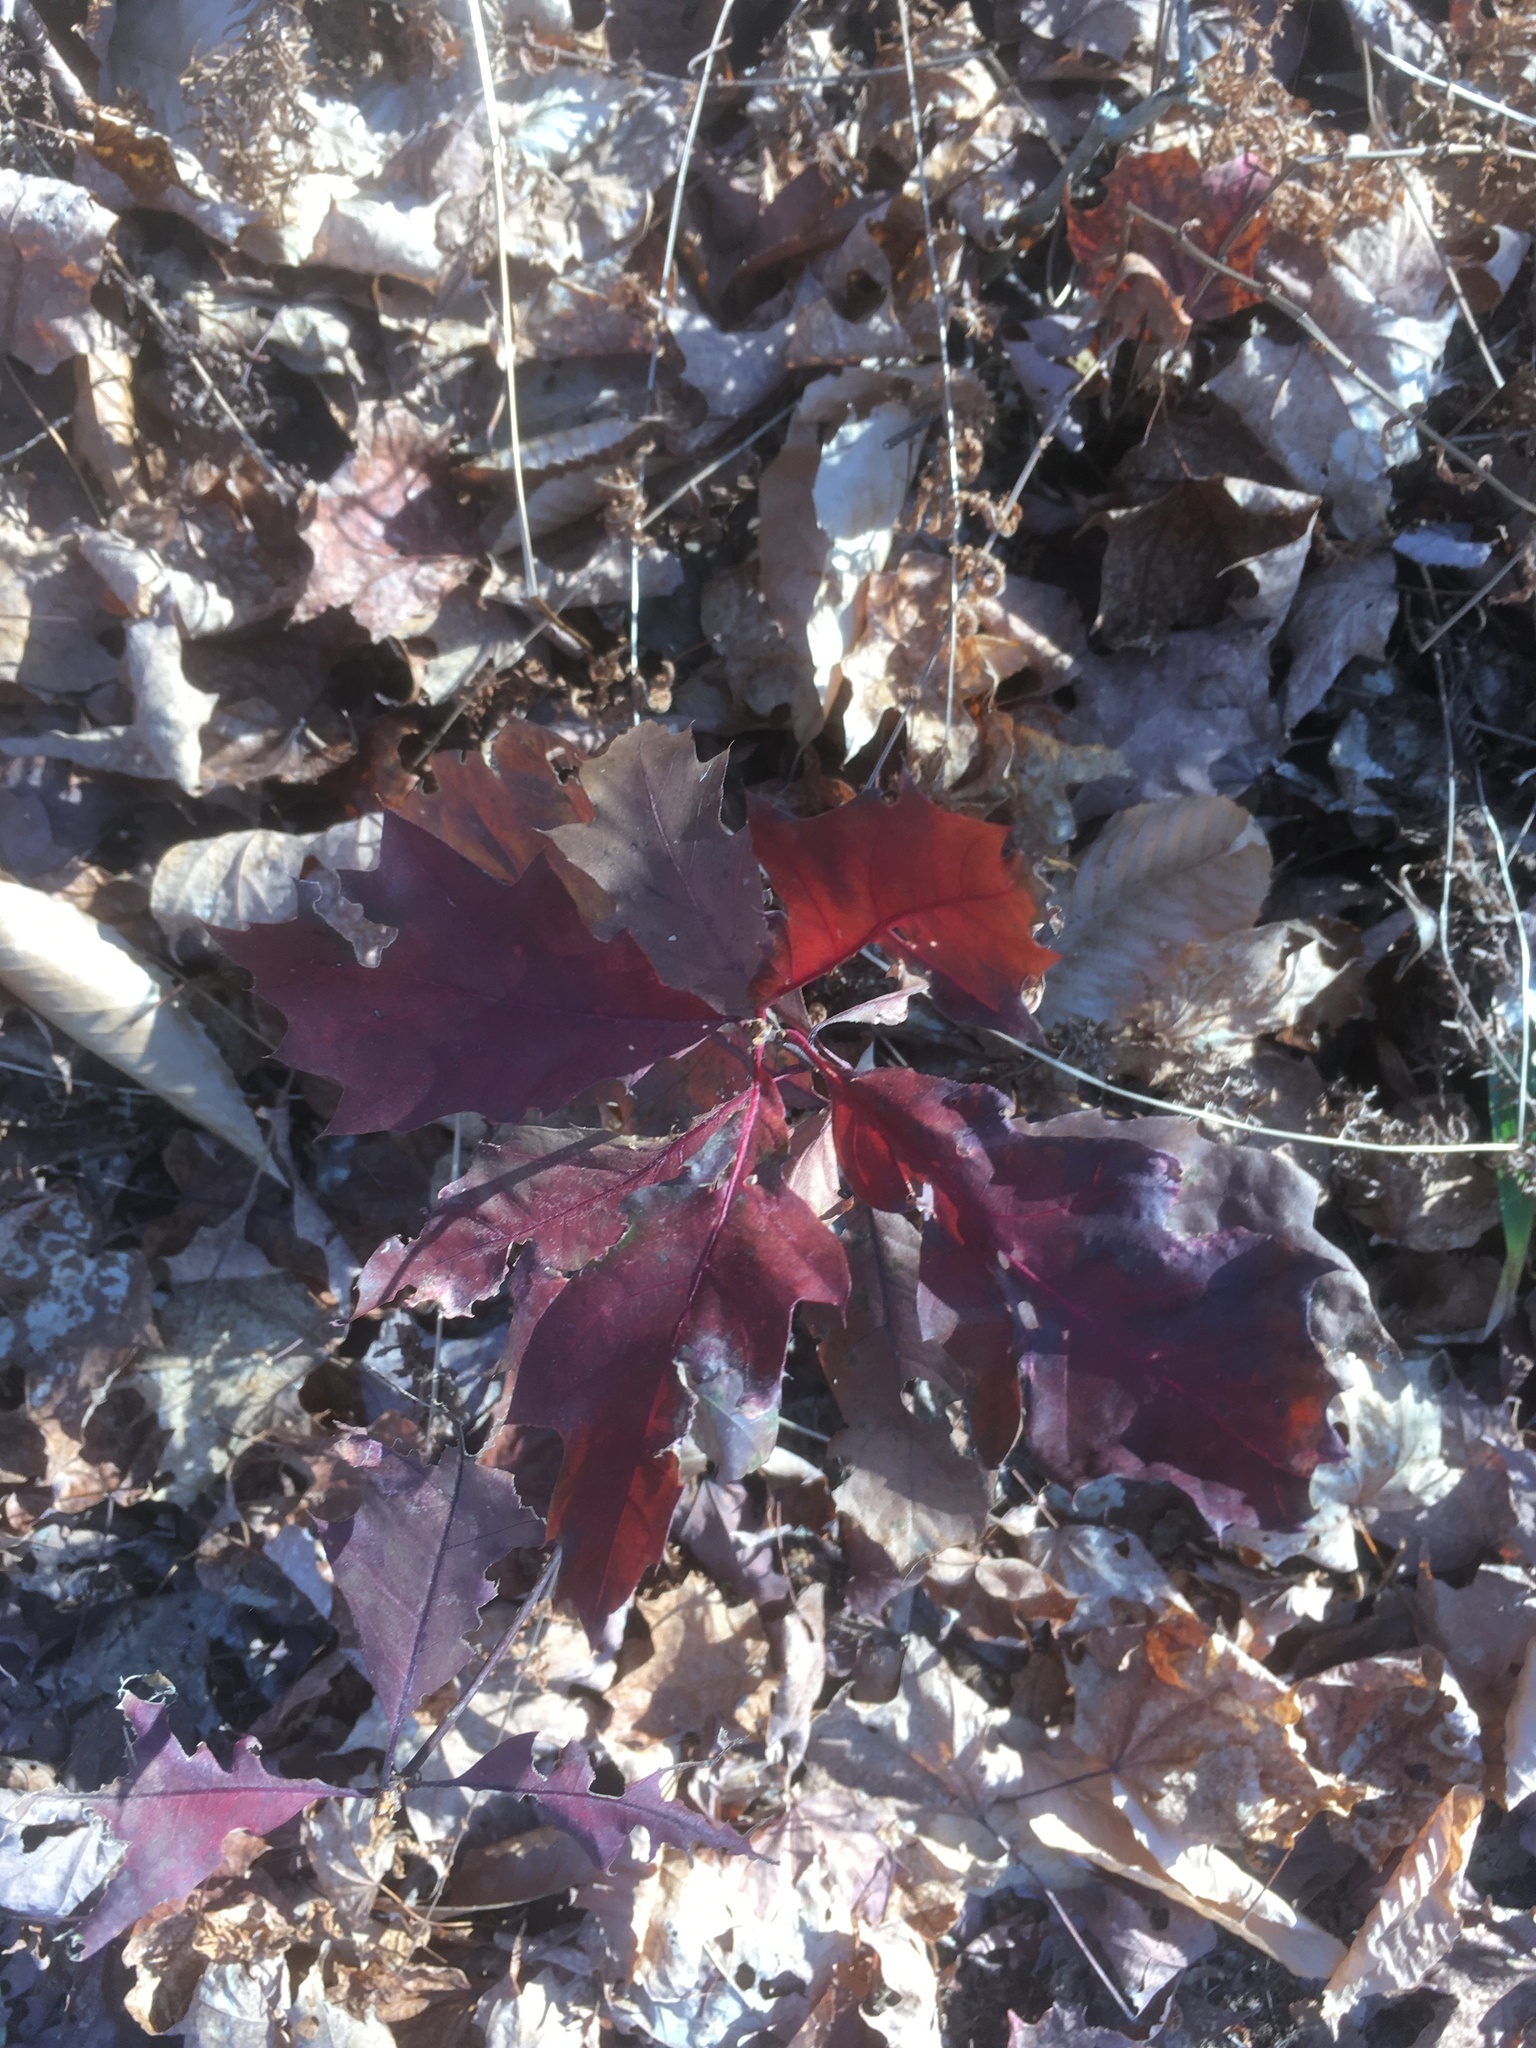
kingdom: Plantae
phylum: Tracheophyta
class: Magnoliopsida
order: Fagales
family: Fagaceae
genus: Quercus
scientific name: Quercus rubra
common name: Red oak
